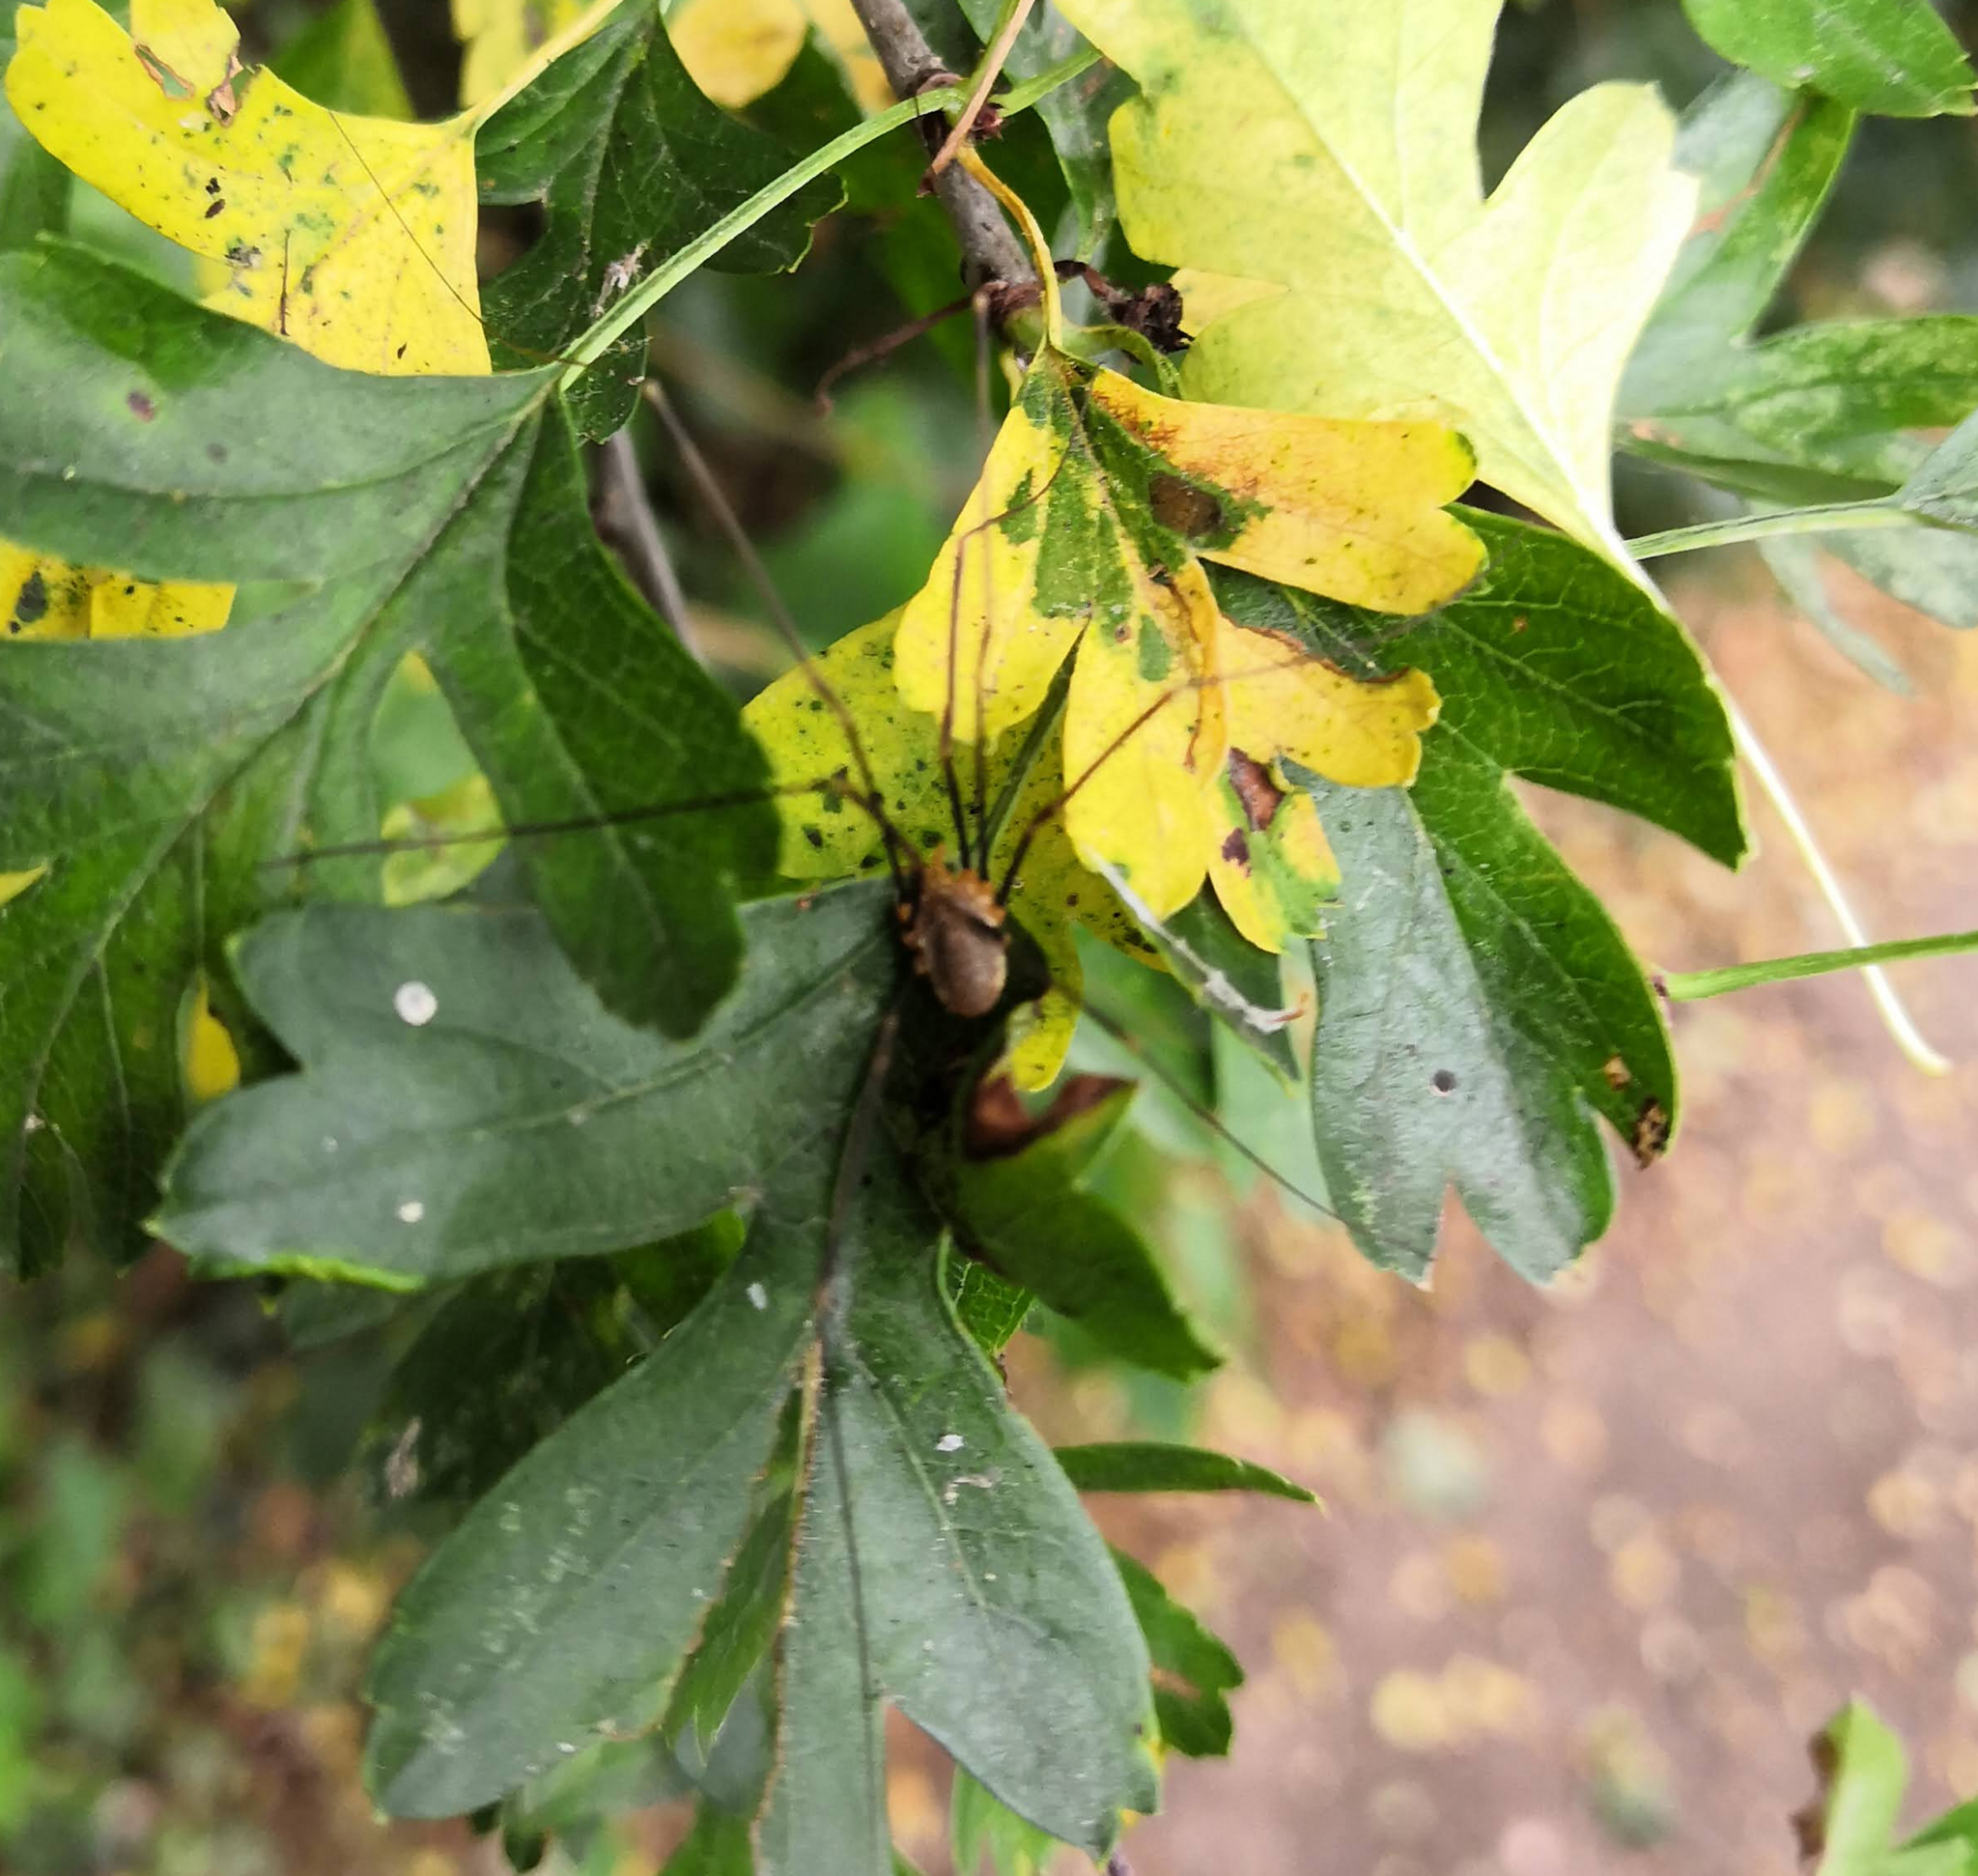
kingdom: Animalia
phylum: Arthropoda
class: Arachnida
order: Opiliones
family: Phalangiidae
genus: Opilio
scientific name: Opilio canestrinii
